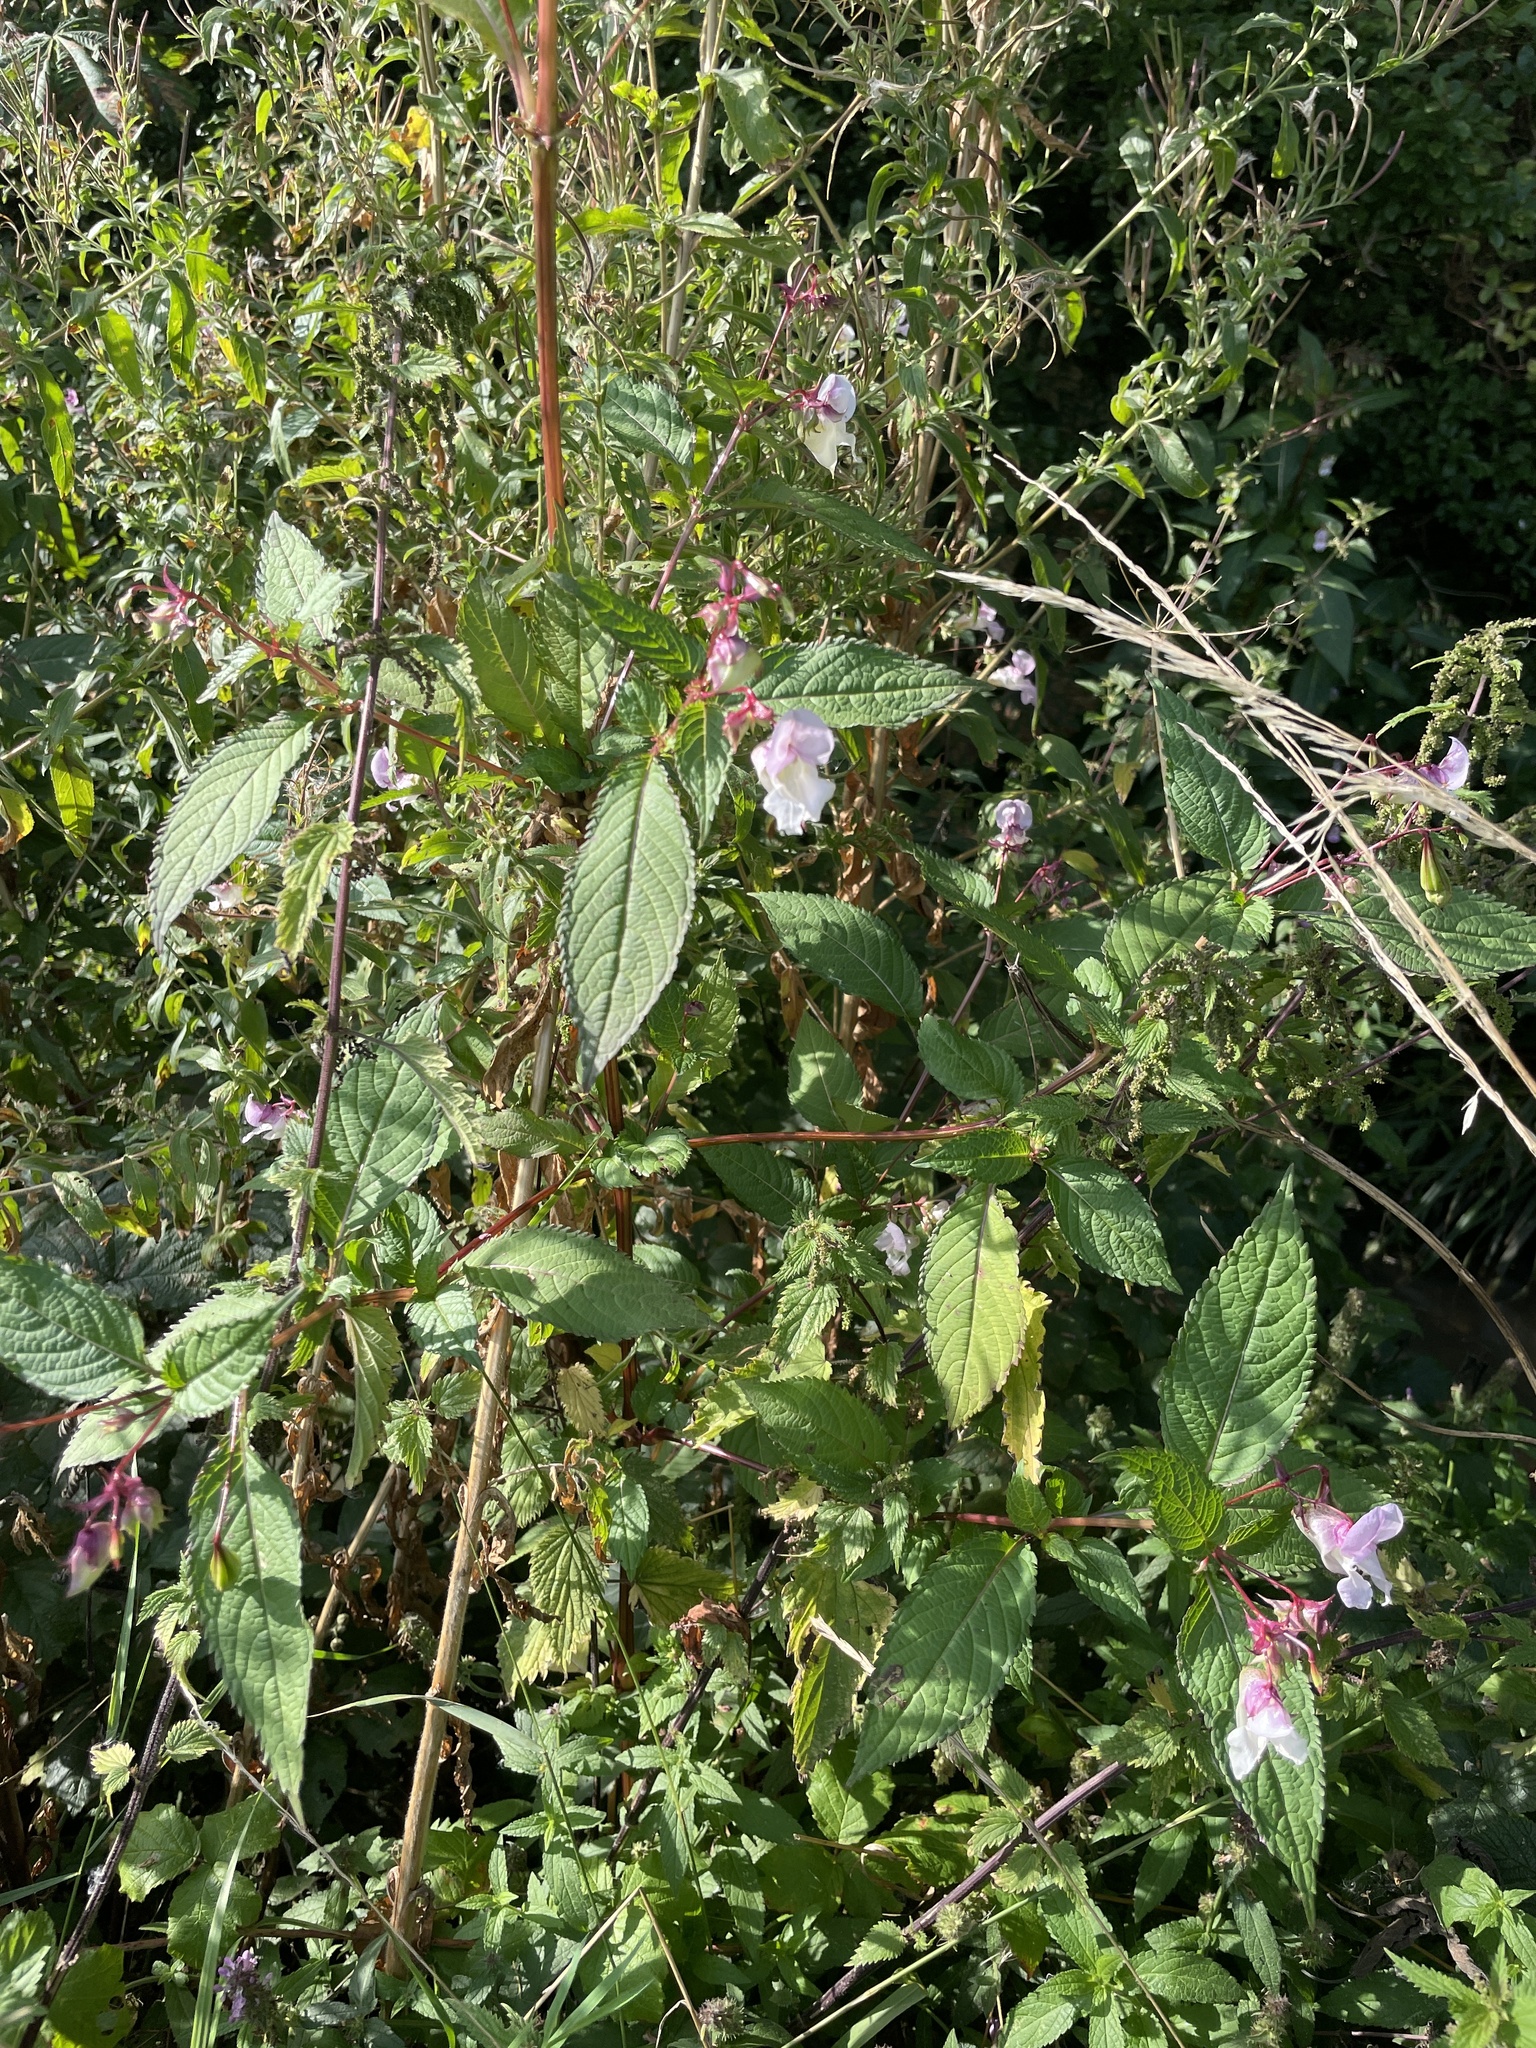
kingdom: Plantae
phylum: Tracheophyta
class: Magnoliopsida
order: Ericales
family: Balsaminaceae
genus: Impatiens
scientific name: Impatiens glandulifera
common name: Himalayan balsam
